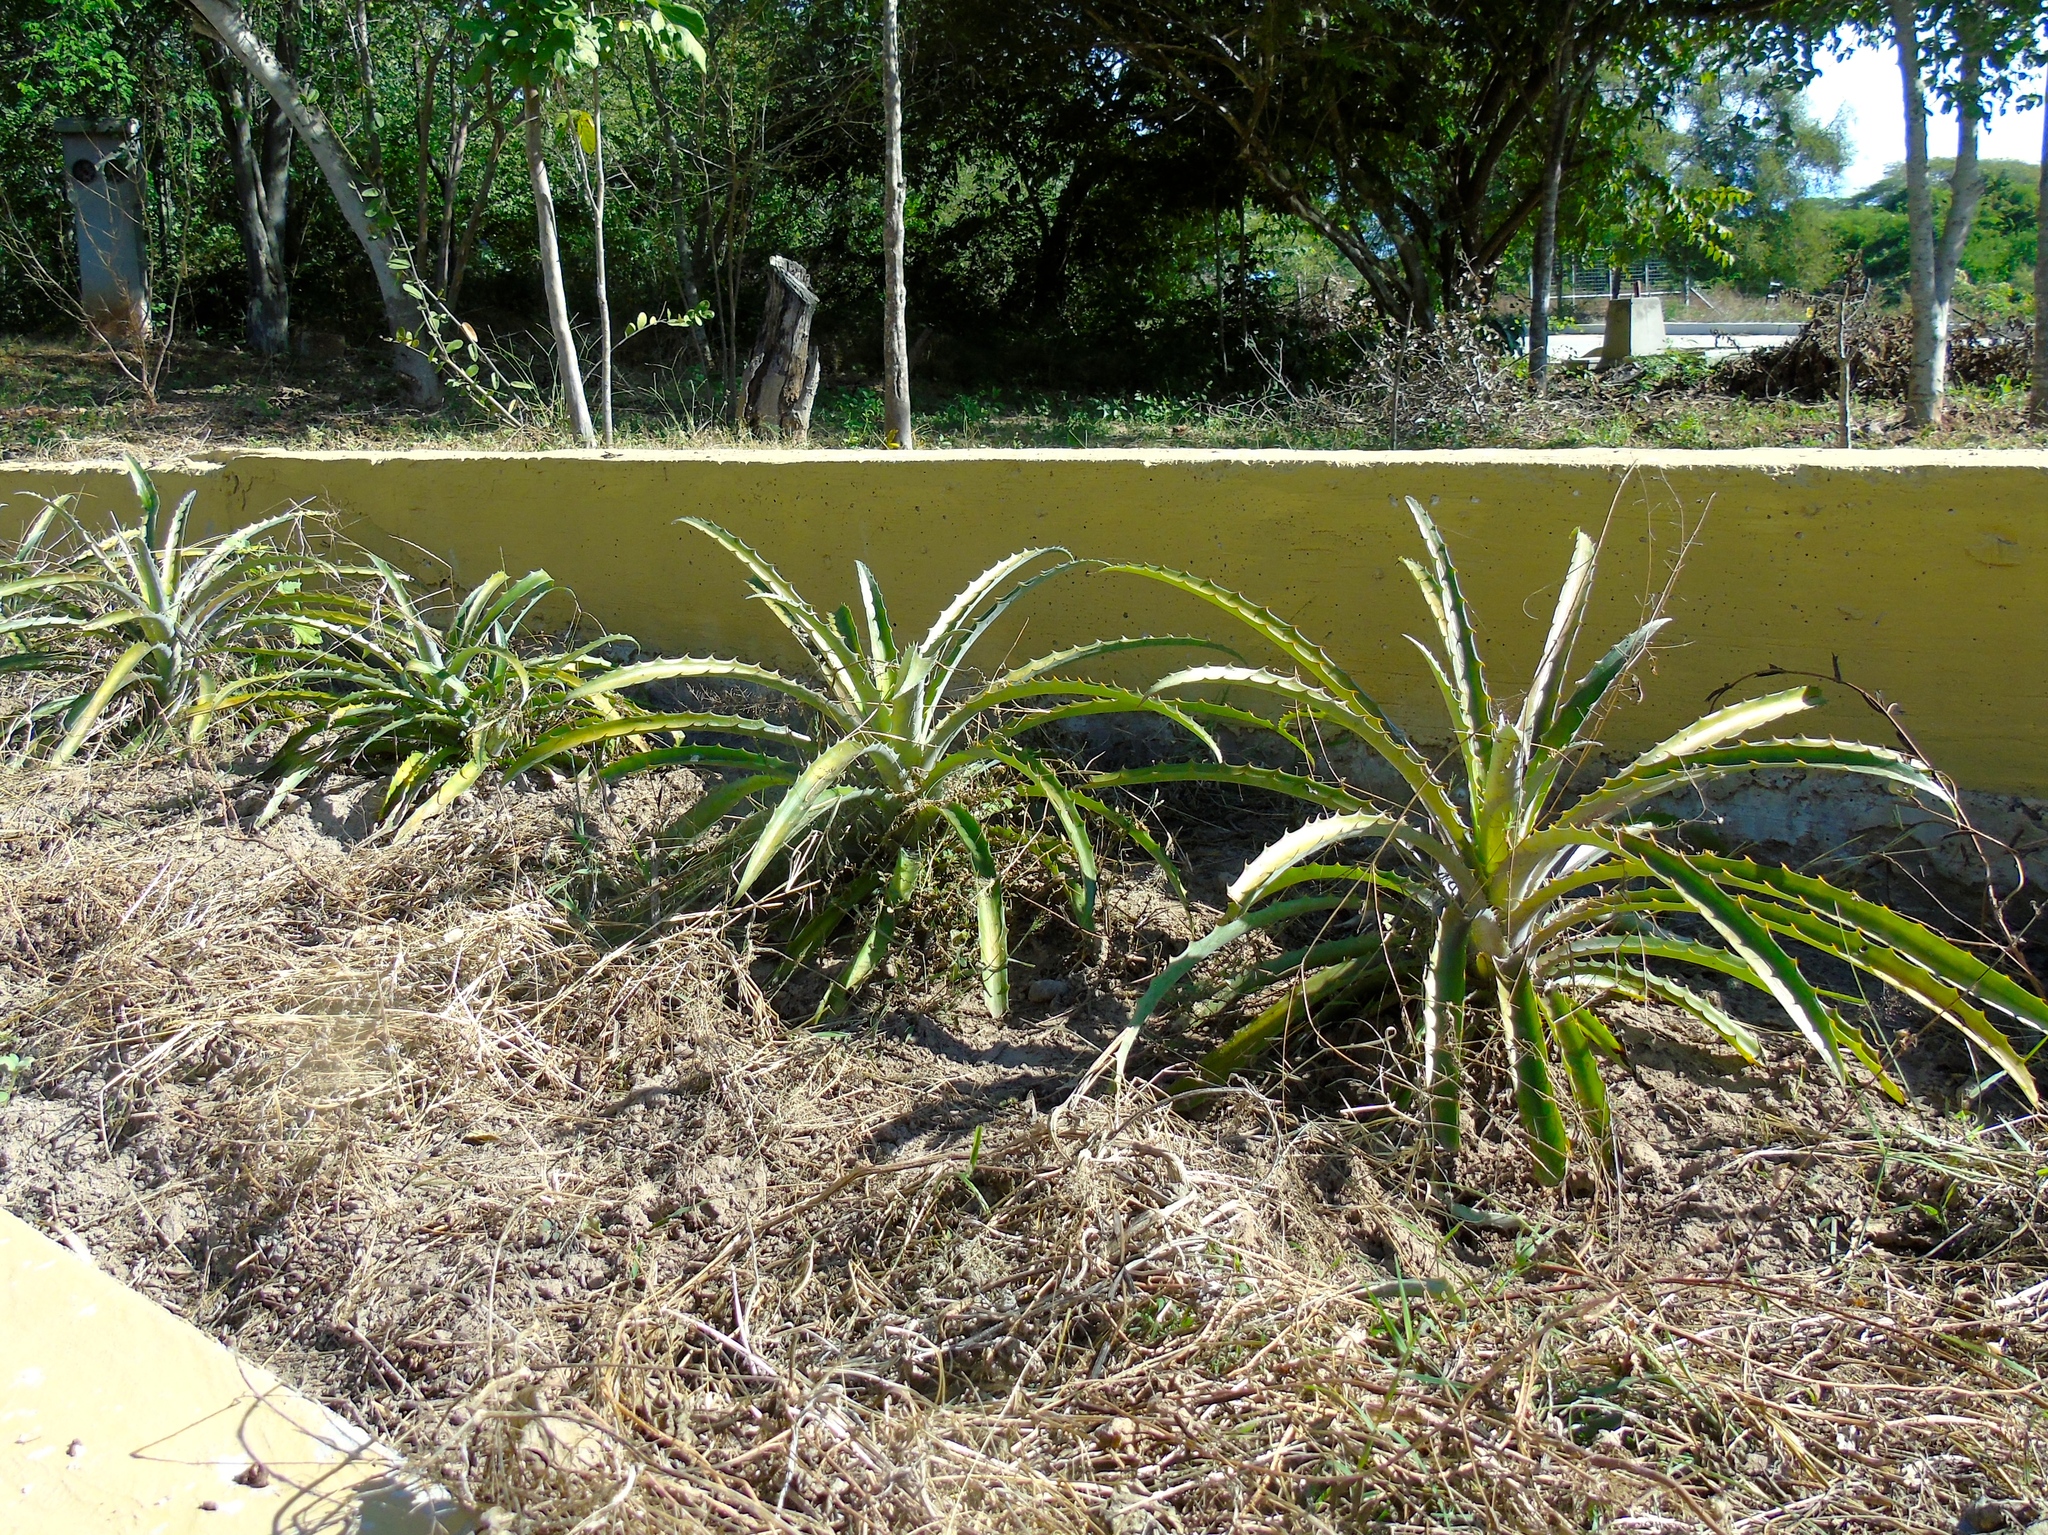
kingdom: Plantae
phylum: Tracheophyta
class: Liliopsida
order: Poales
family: Bromeliaceae
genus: Bromelia
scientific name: Bromelia karatas
